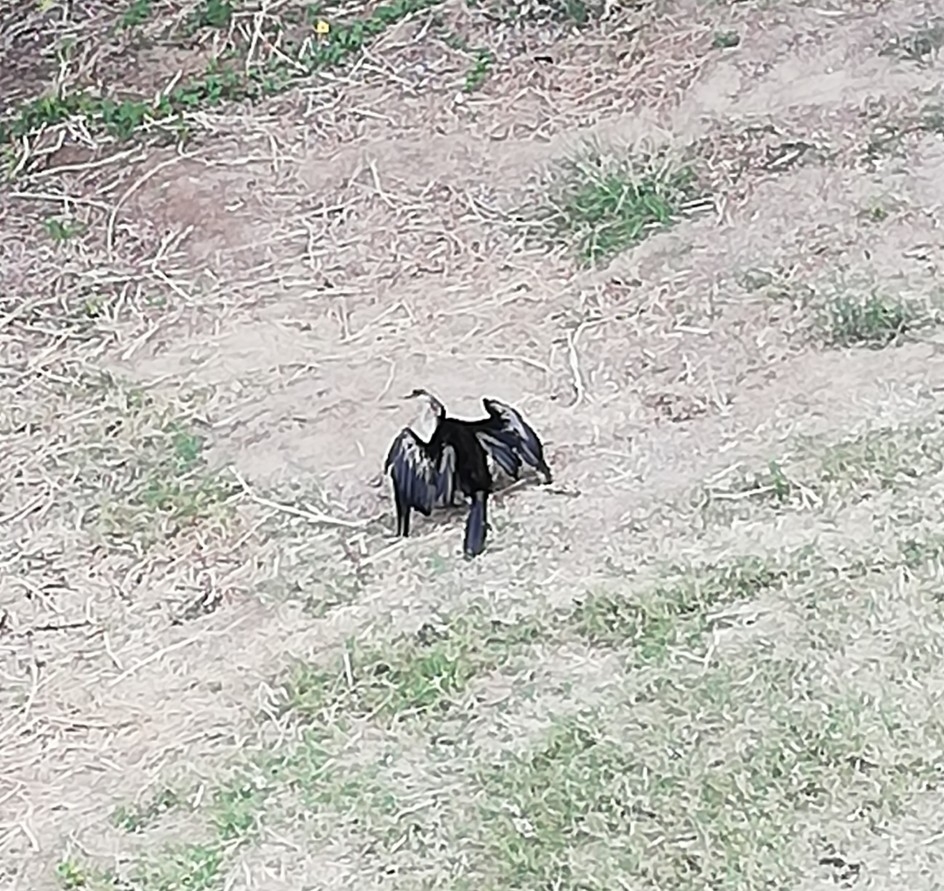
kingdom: Animalia
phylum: Chordata
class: Aves
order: Suliformes
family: Anhingidae
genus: Anhinga
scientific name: Anhinga novaehollandiae
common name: Australasian darter
